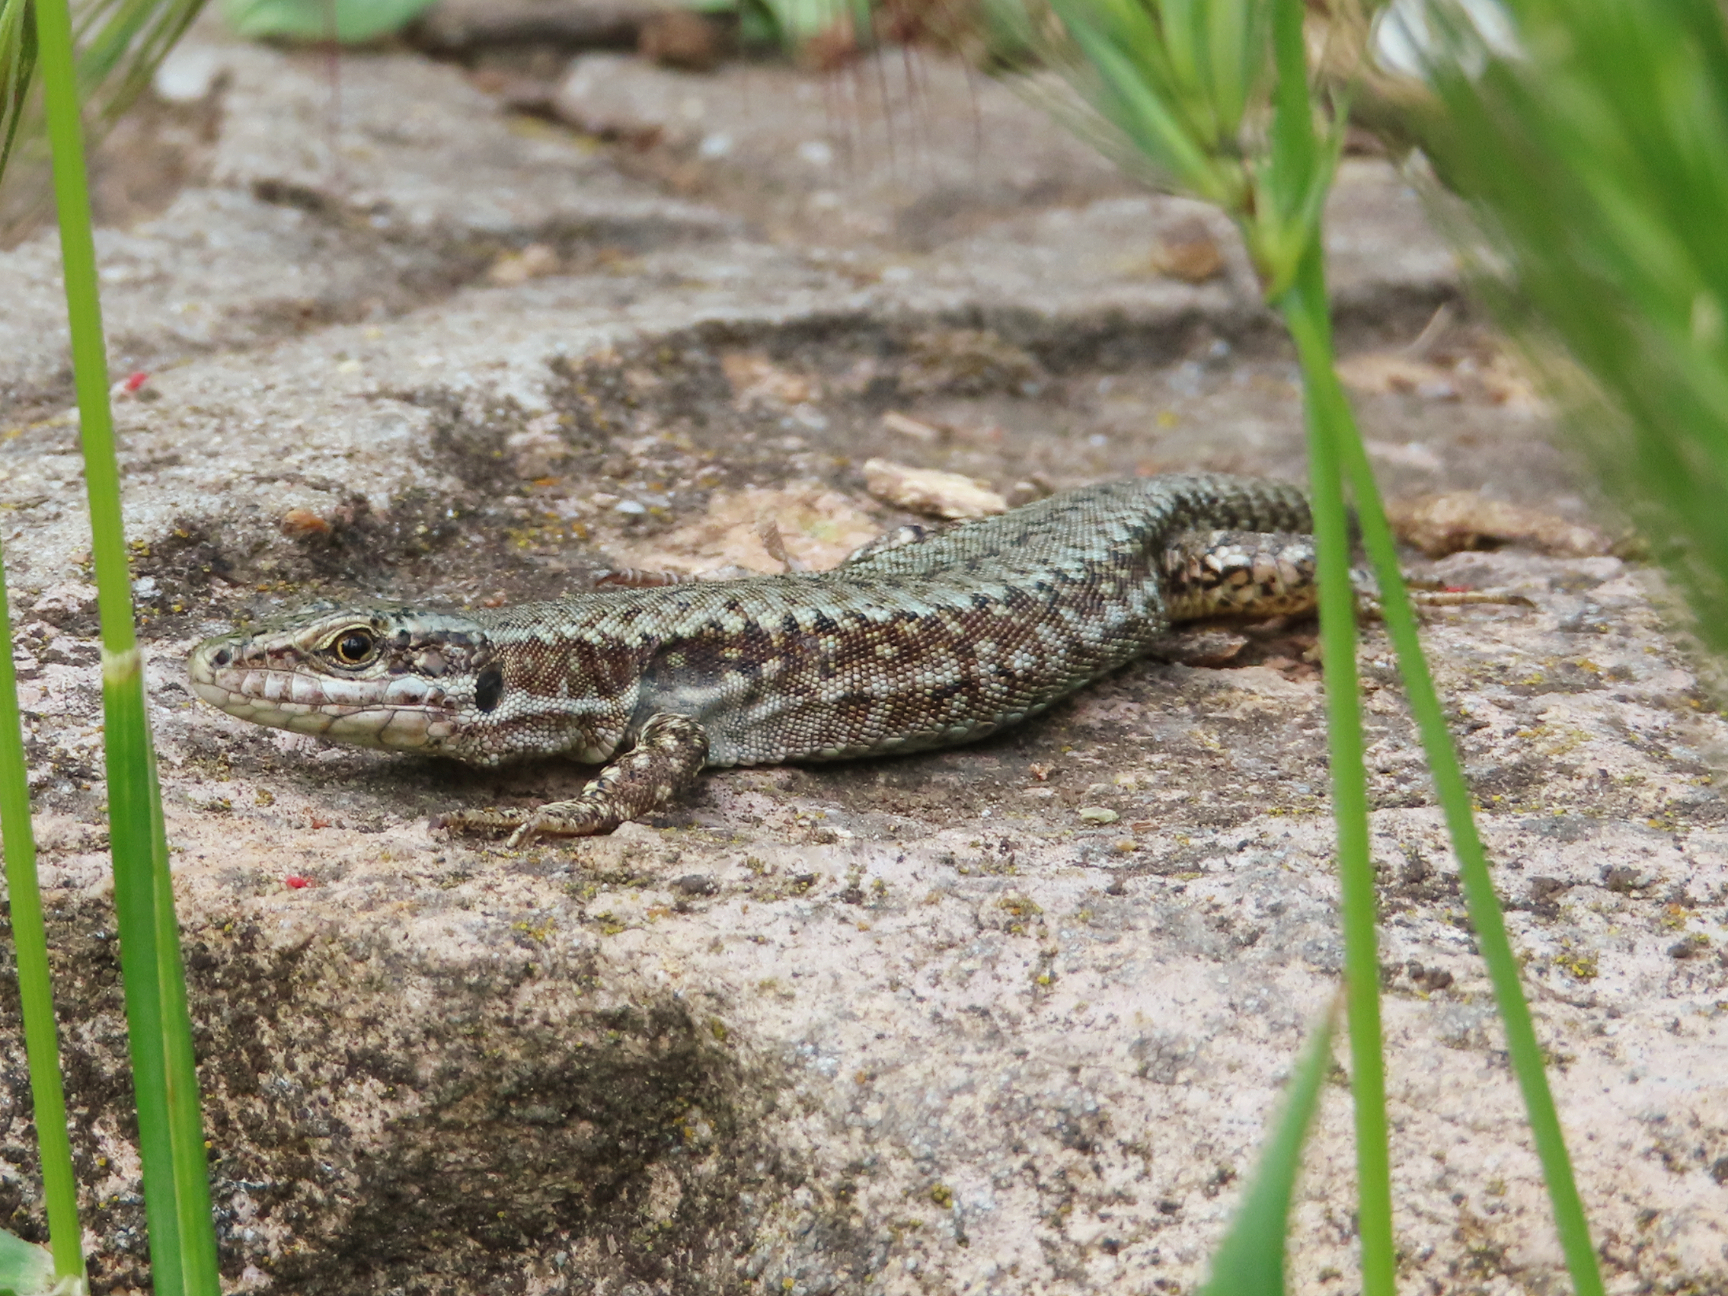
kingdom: Animalia
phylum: Chordata
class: Squamata
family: Lacertidae
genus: Podarcis
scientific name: Podarcis muralis
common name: Common wall lizard
